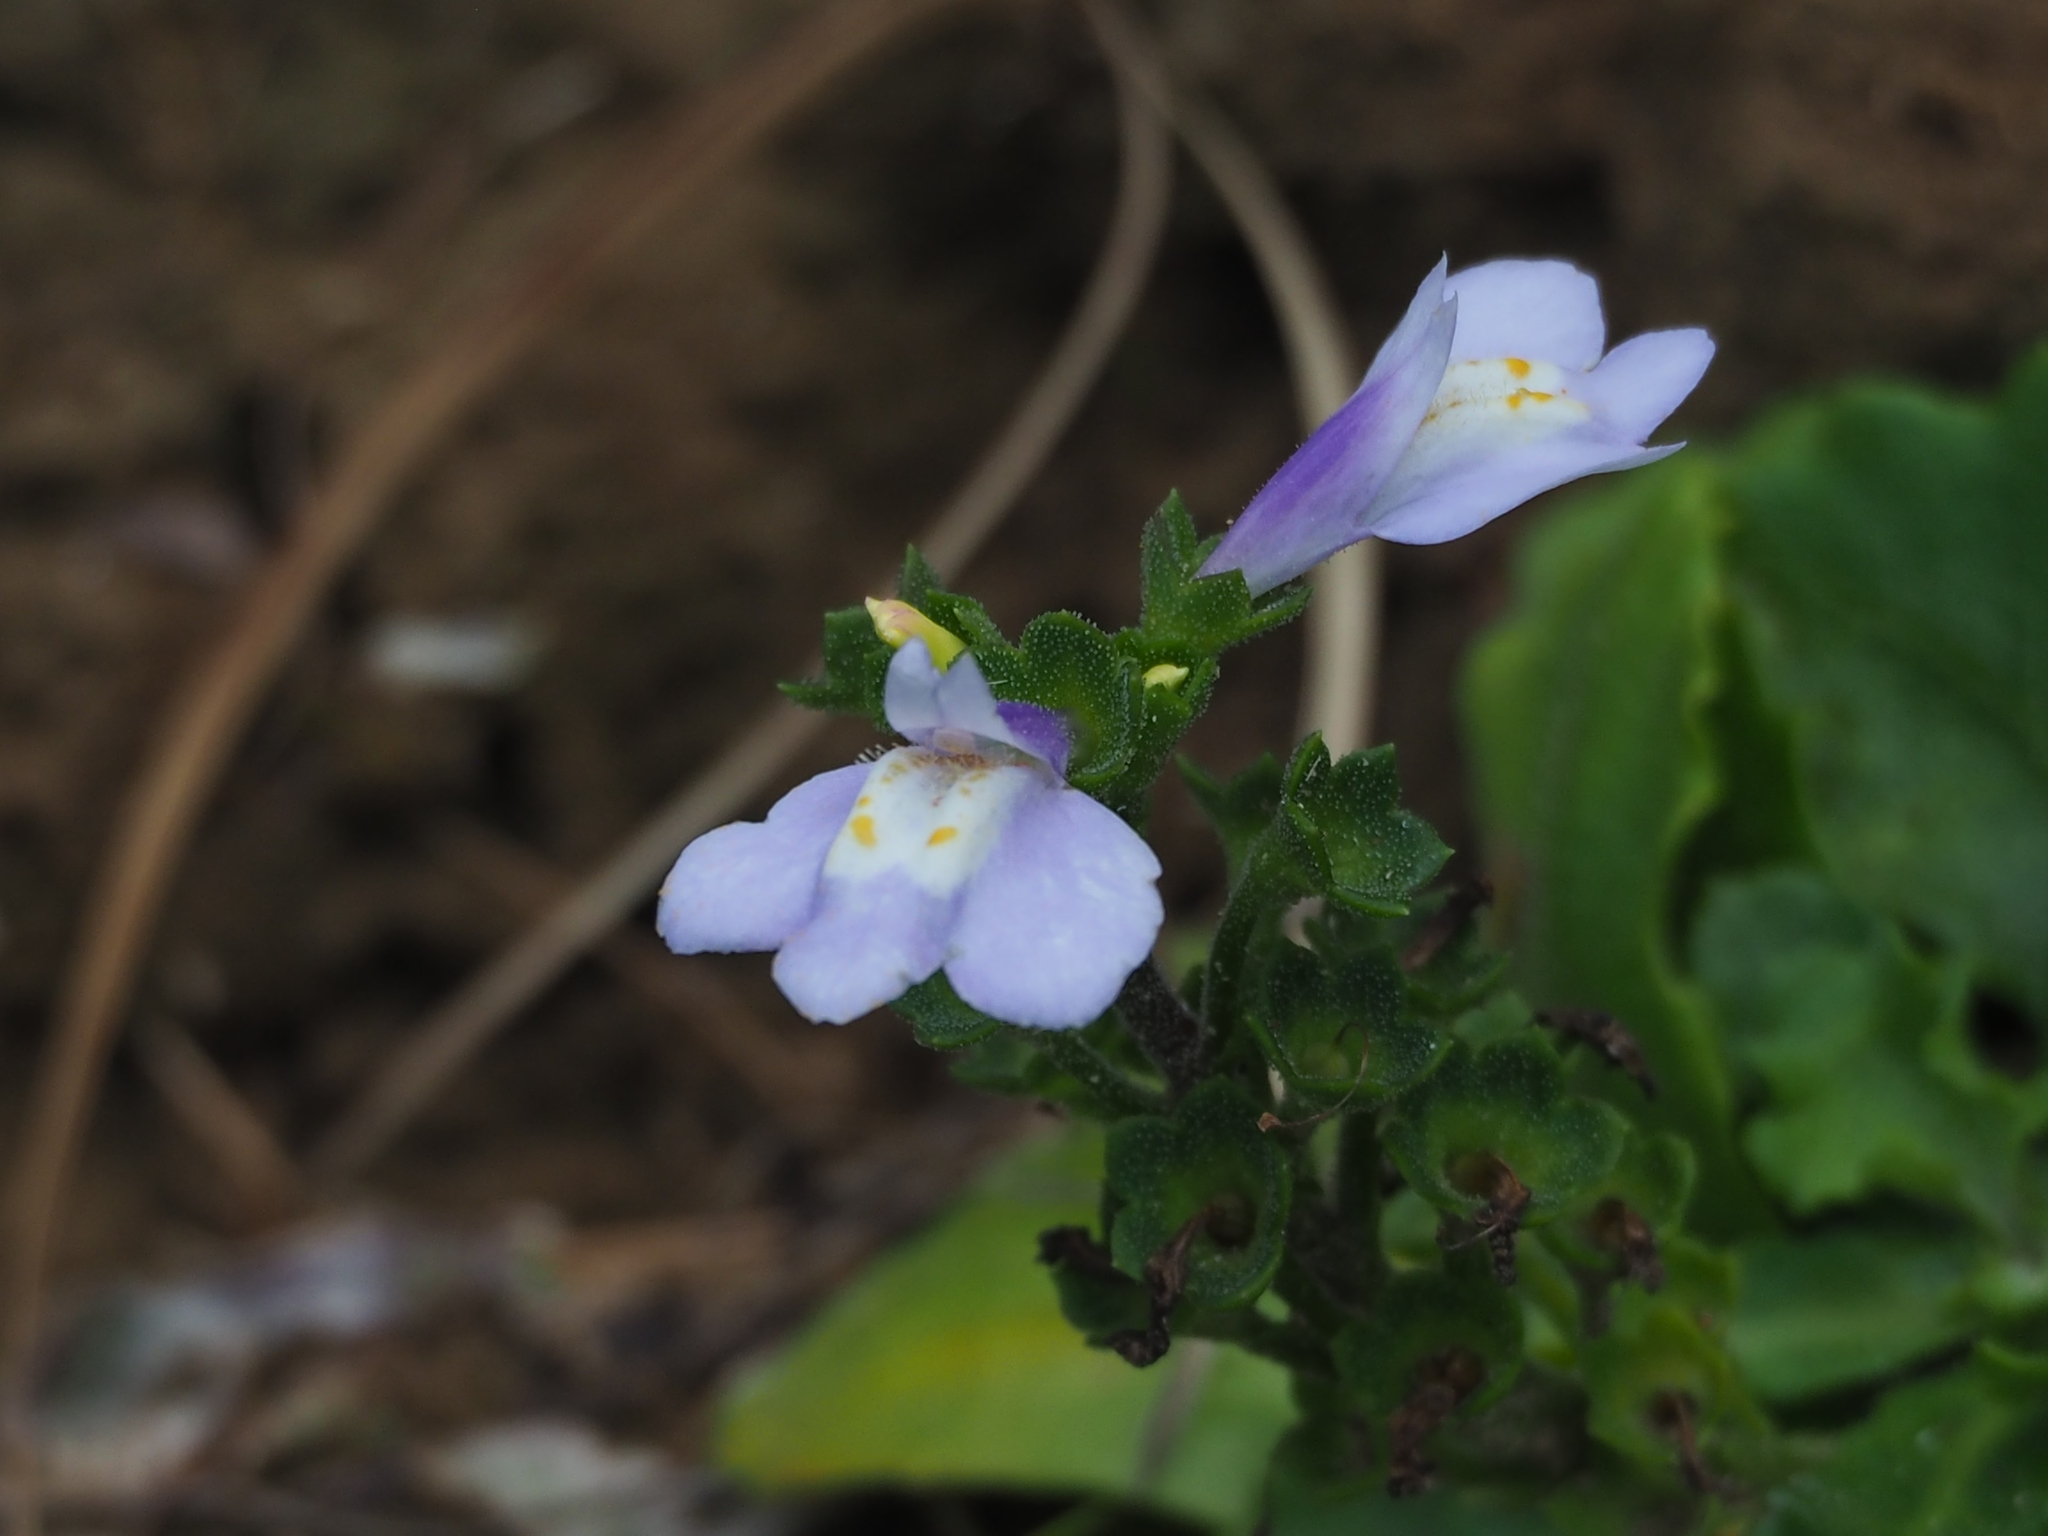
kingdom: Plantae
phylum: Tracheophyta
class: Magnoliopsida
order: Lamiales
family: Mazaceae
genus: Mazus
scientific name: Mazus fauriei
